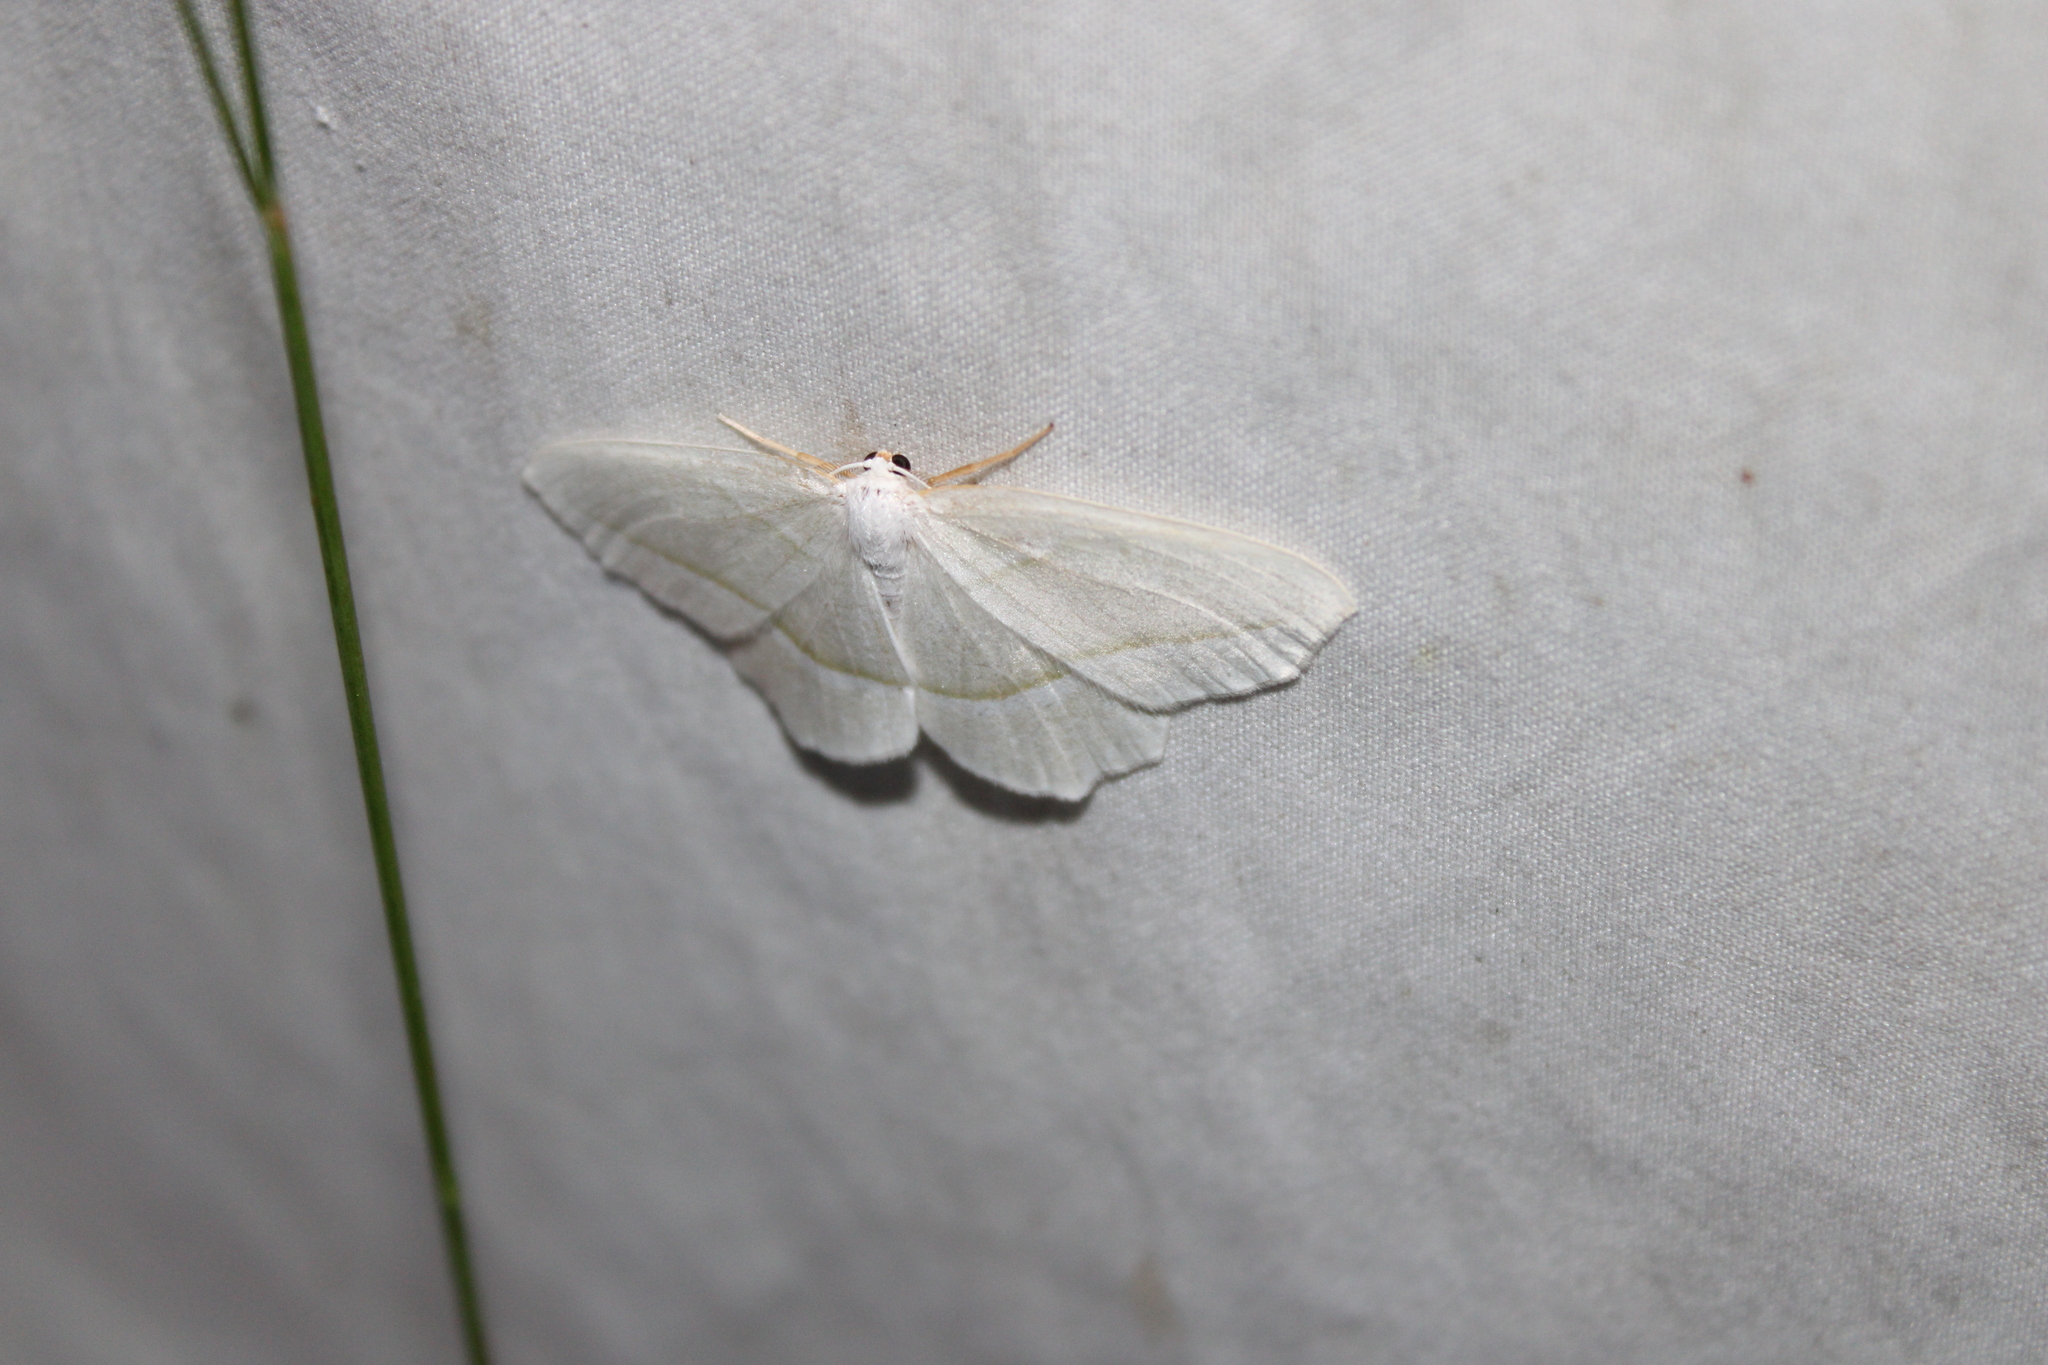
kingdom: Animalia
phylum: Arthropoda
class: Insecta
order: Lepidoptera
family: Geometridae
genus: Campaea
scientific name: Campaea perlata
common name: Fringed looper
